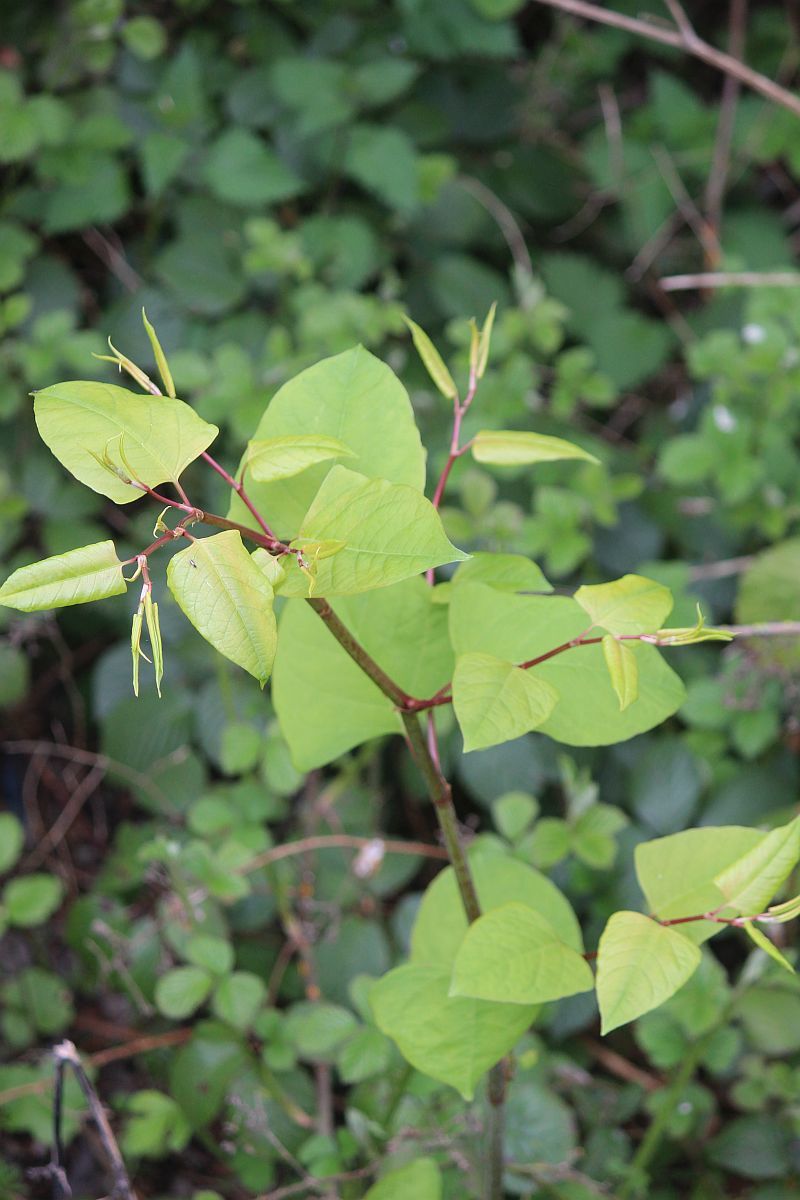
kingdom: Plantae
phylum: Tracheophyta
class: Magnoliopsida
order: Caryophyllales
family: Polygonaceae
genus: Reynoutria
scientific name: Reynoutria japonica
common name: Japanese knotweed
